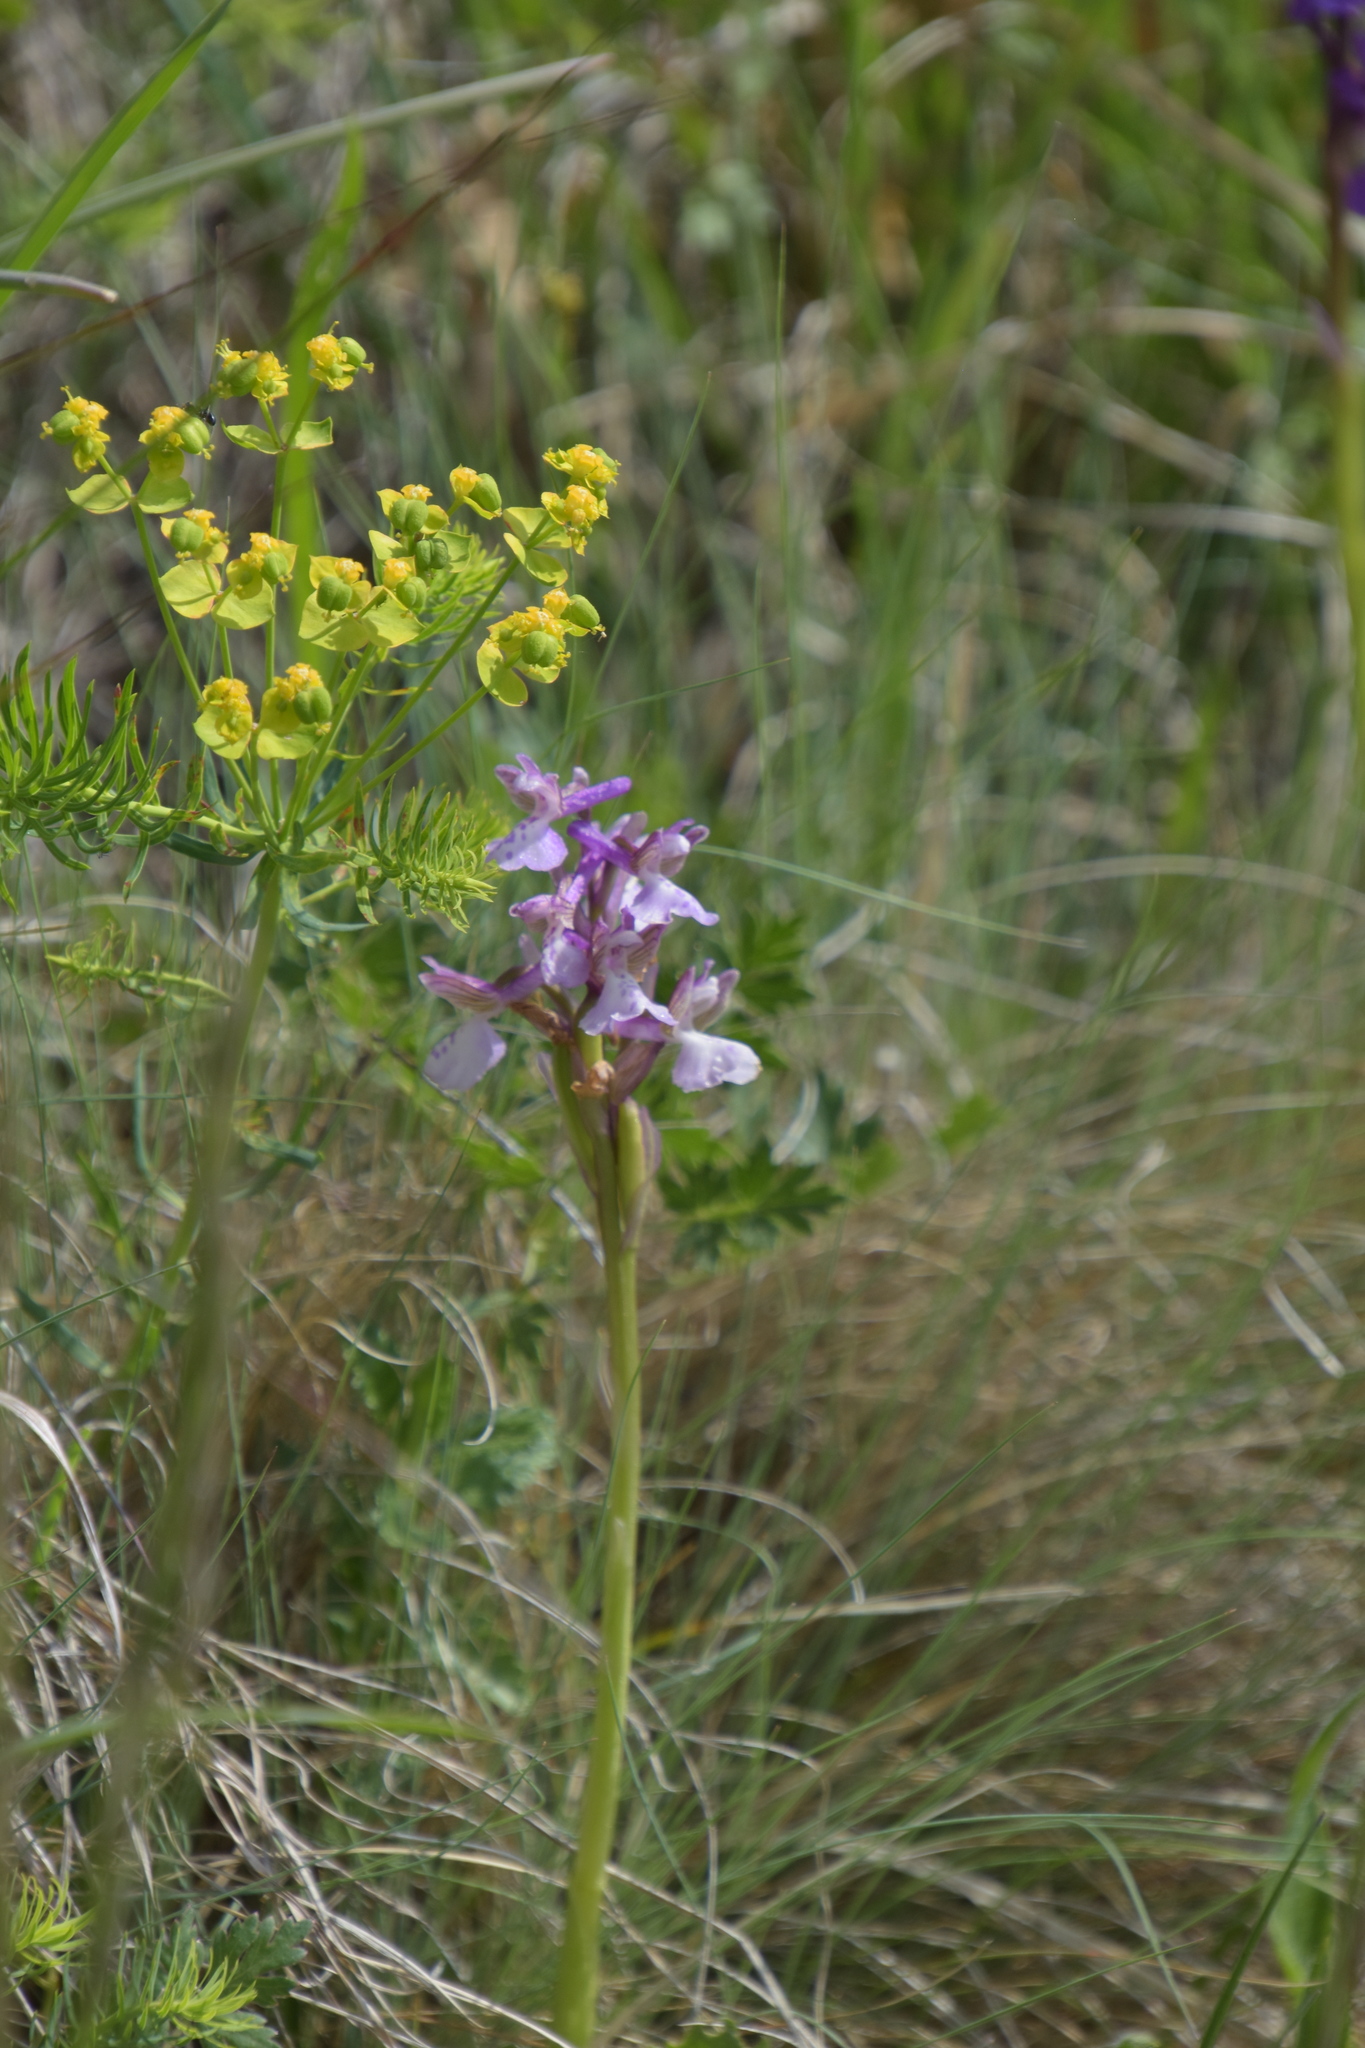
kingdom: Plantae
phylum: Tracheophyta
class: Liliopsida
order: Asparagales
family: Orchidaceae
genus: Anacamptis
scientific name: Anacamptis morio
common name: Green-winged orchid
